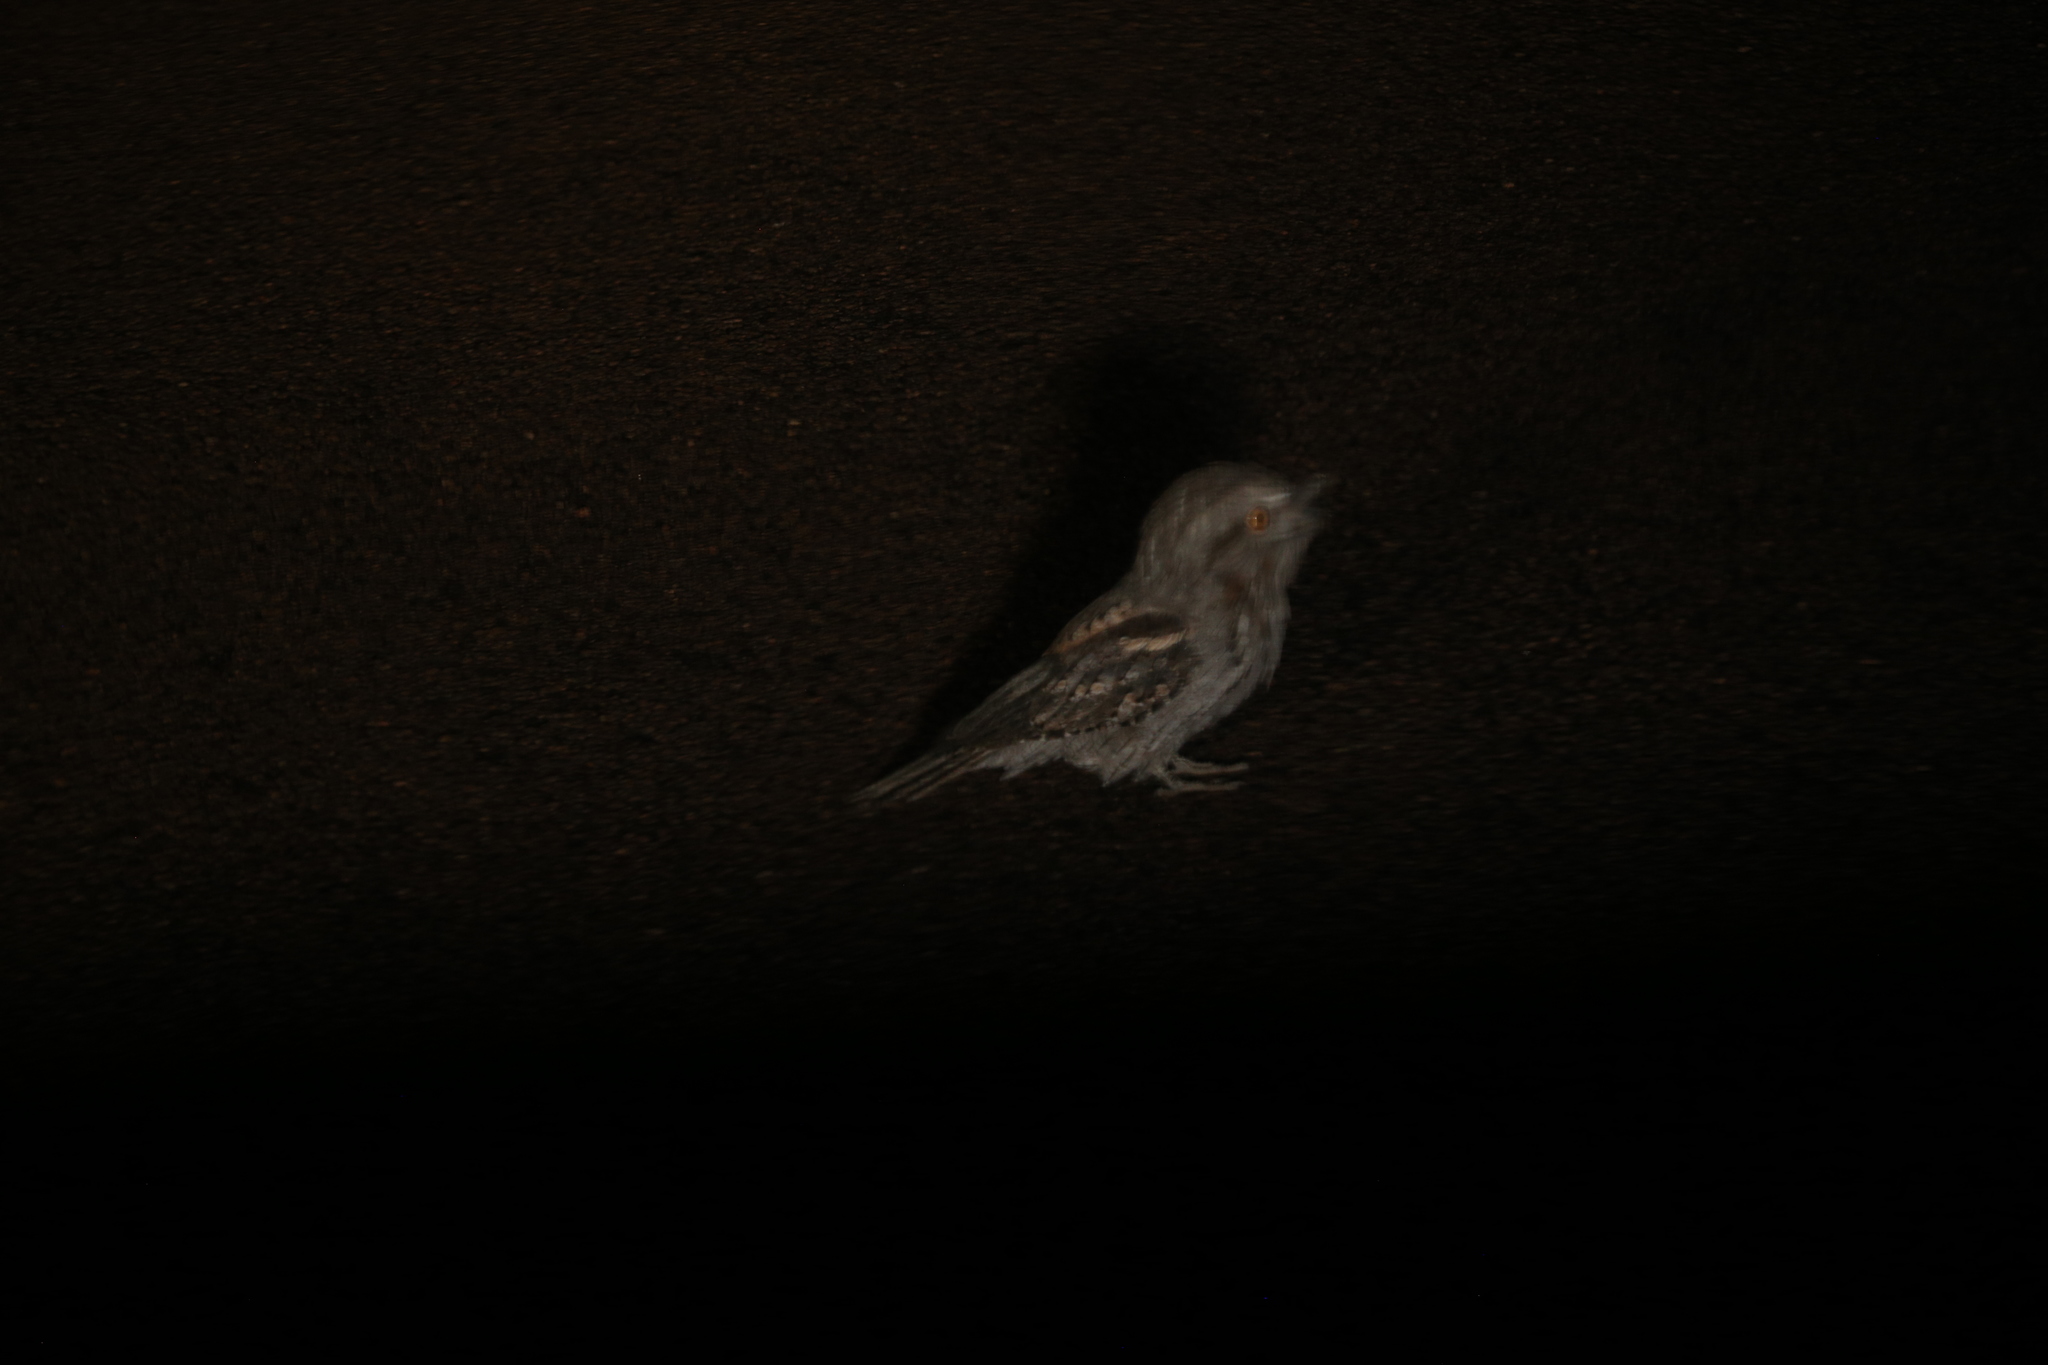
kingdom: Animalia
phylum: Chordata
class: Aves
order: Caprimulgiformes
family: Podargidae
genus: Podargus
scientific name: Podargus strigoides
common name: Tawny frogmouth
